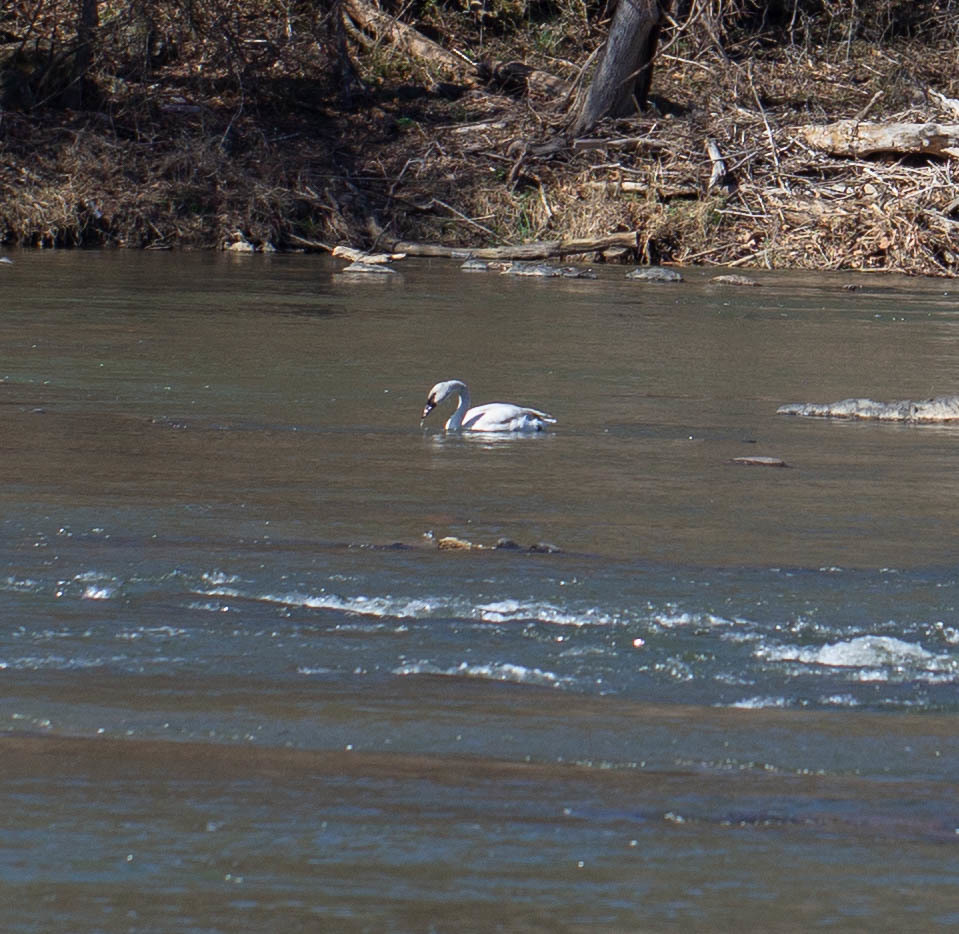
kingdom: Animalia
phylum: Chordata
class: Aves
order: Anseriformes
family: Anatidae
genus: Cygnus
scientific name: Cygnus buccinator
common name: Trumpeter swan
